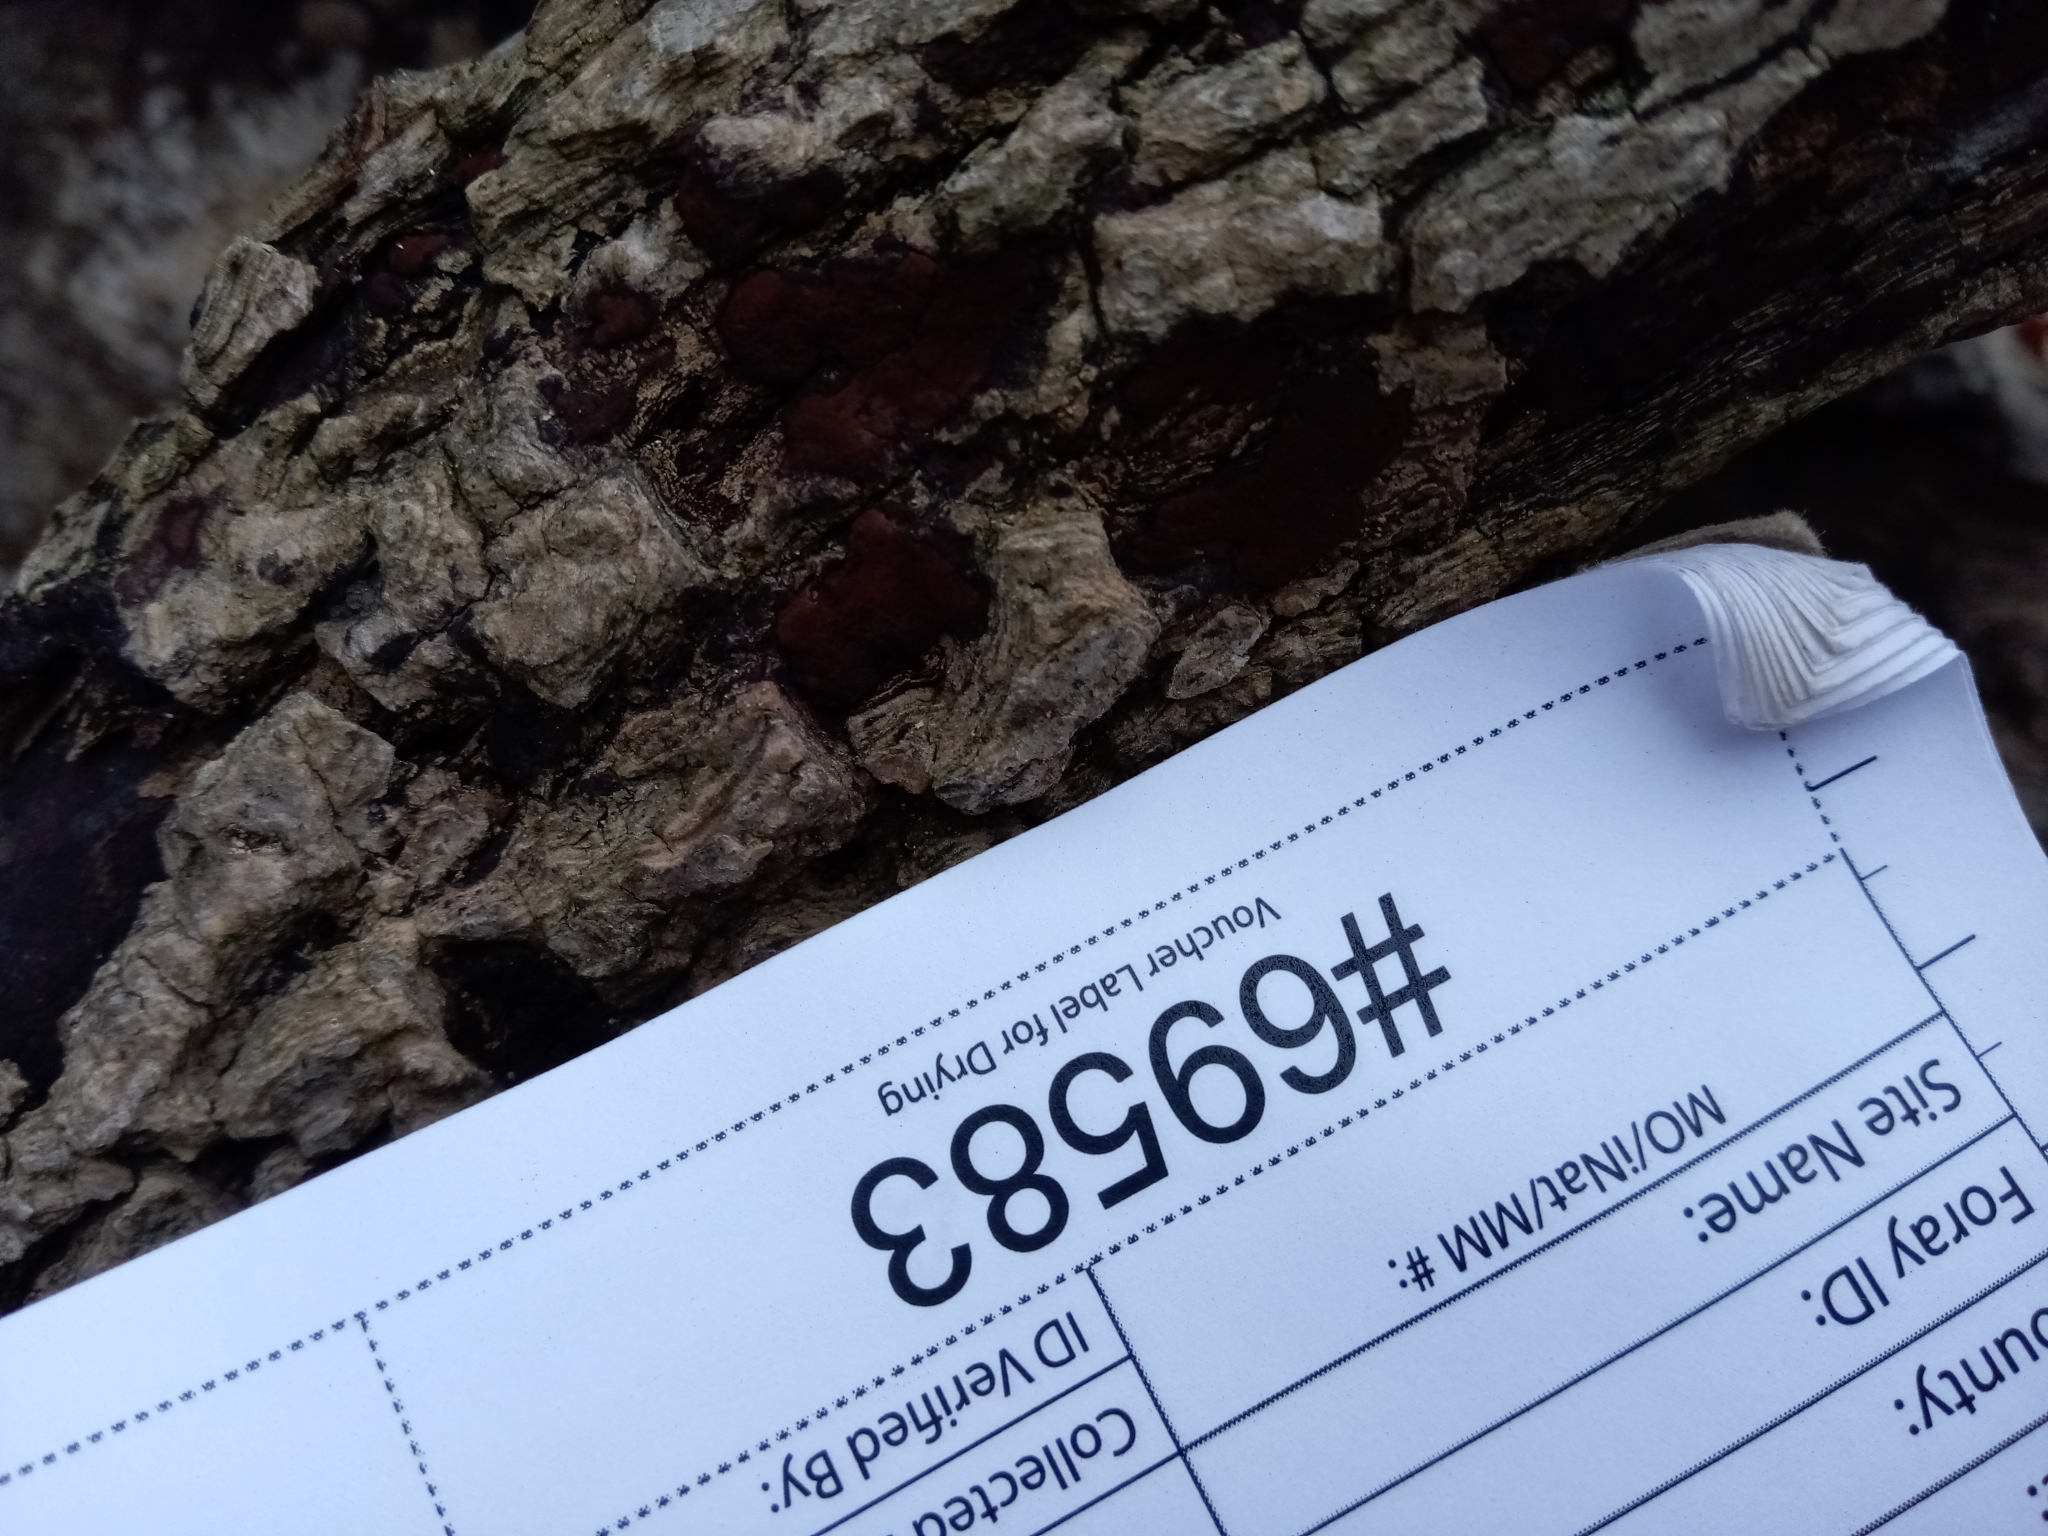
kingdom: Fungi
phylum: Ascomycota
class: Sordariomycetes
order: Xylariales
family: Hypoxylaceae
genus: Hypomontagnella
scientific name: Hypomontagnella submonticulosa
